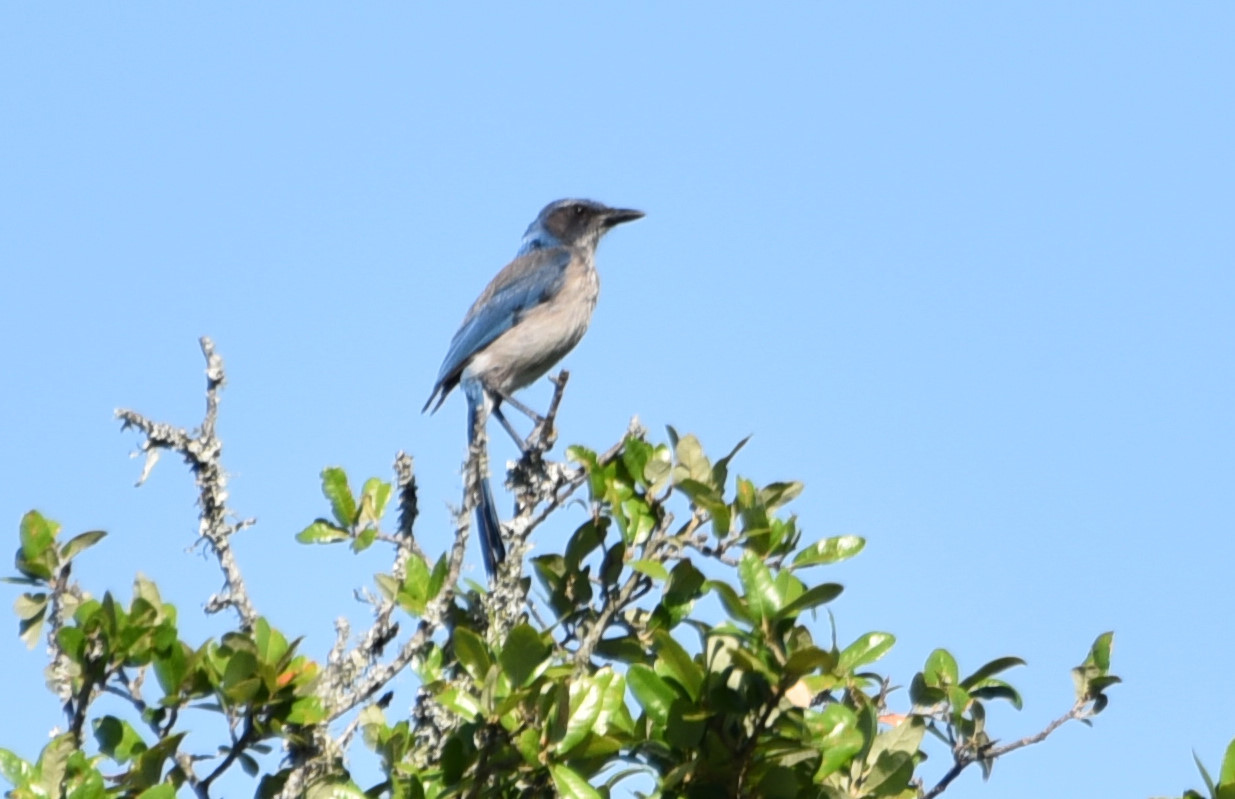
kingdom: Animalia
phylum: Chordata
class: Aves
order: Passeriformes
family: Corvidae
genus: Aphelocoma
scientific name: Aphelocoma woodhouseii
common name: Woodhouse's scrub-jay
